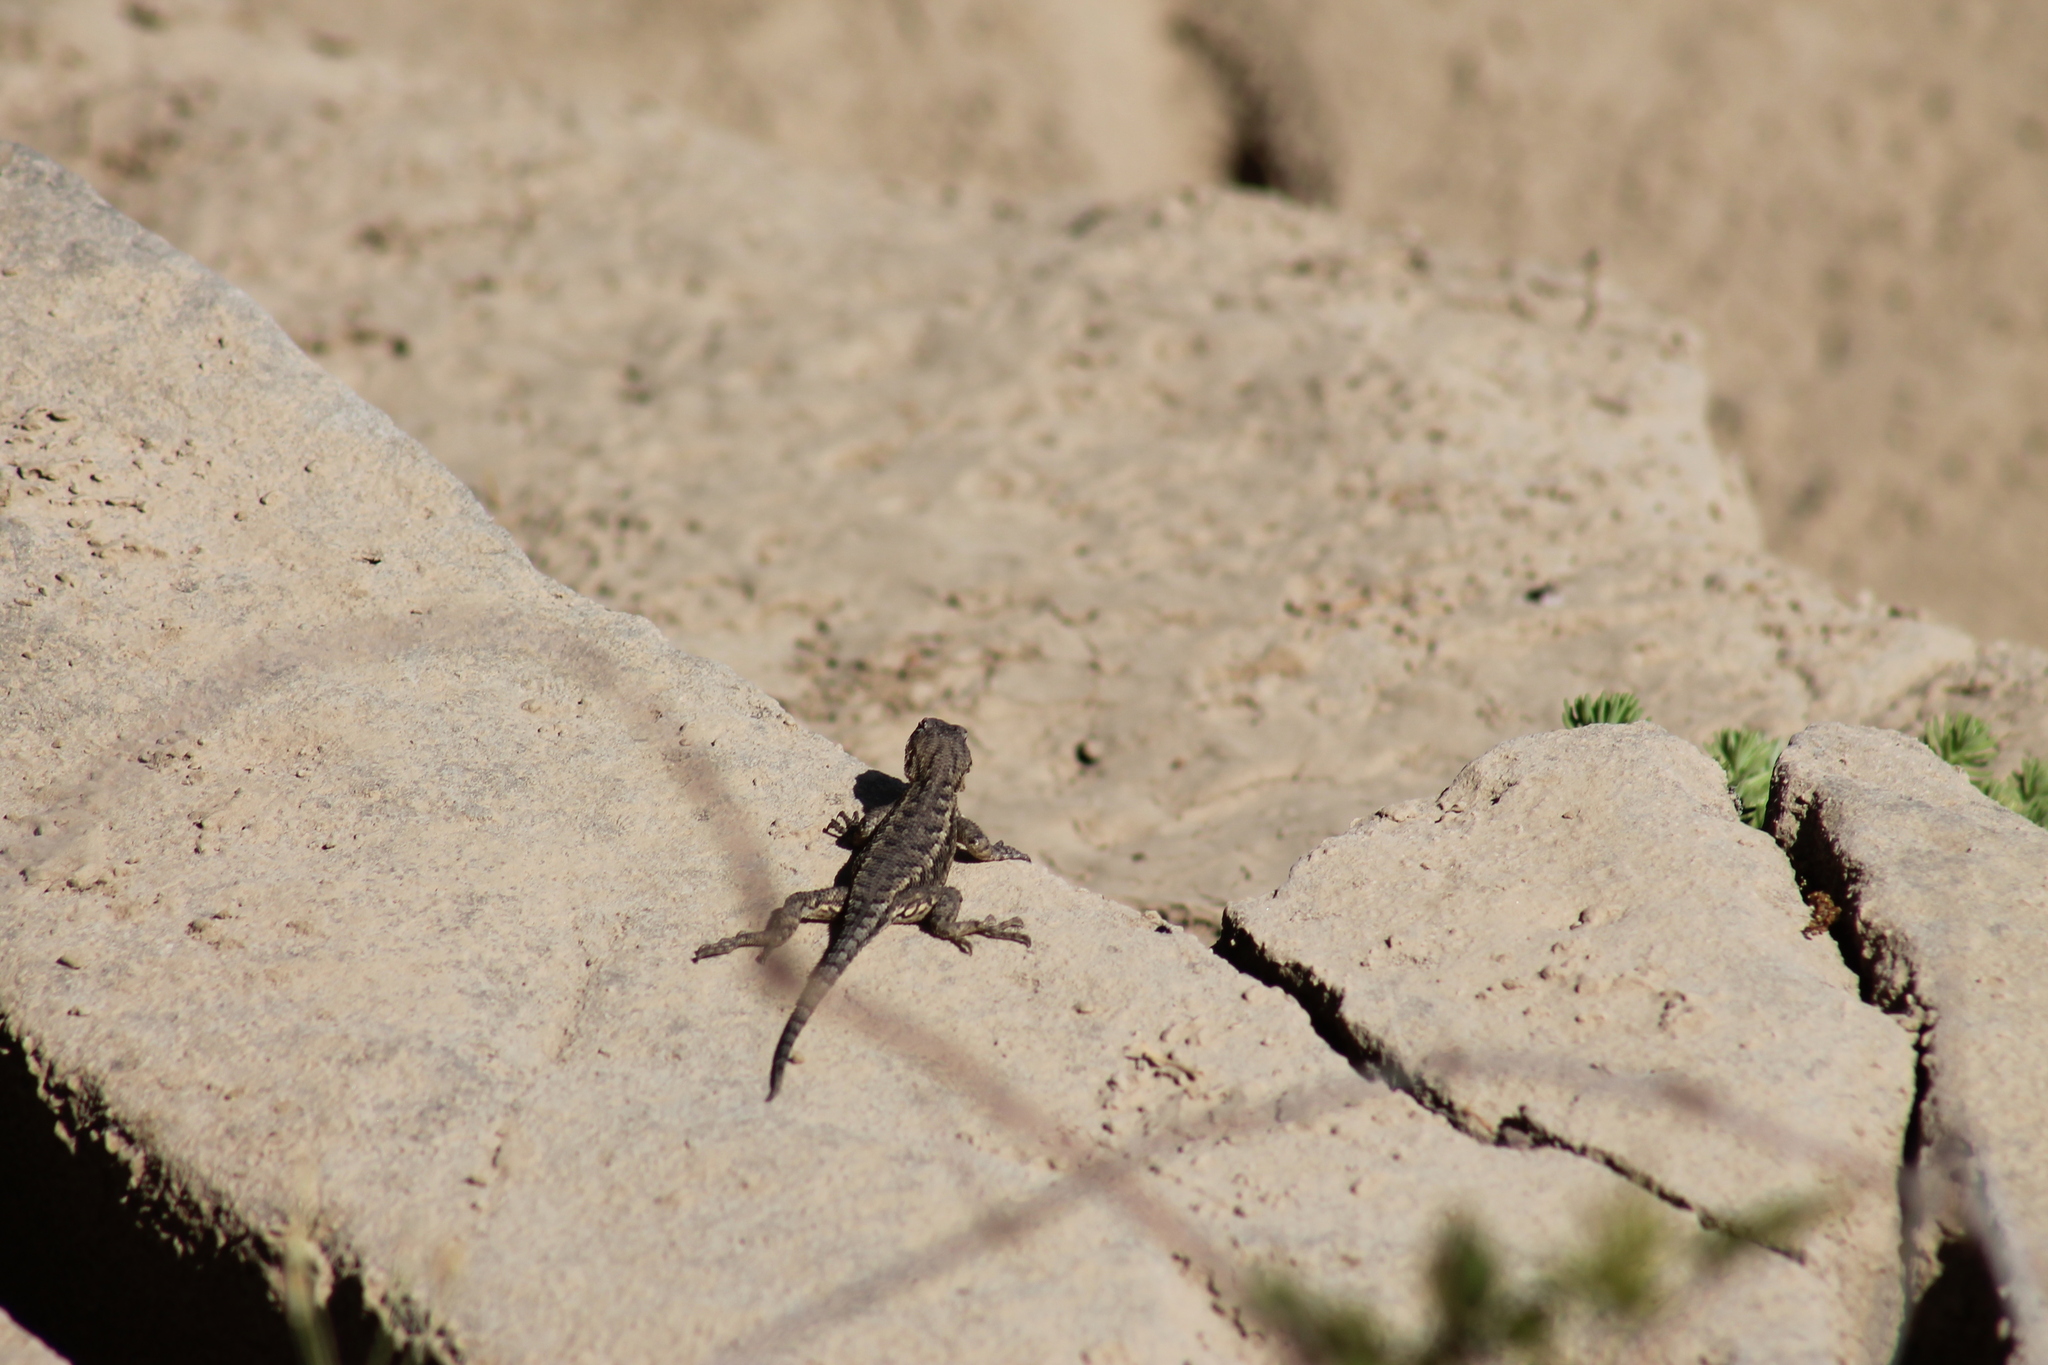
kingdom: Animalia
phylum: Chordata
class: Squamata
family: Phrynosomatidae
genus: Sceloporus
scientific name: Sceloporus undulatus
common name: Eastern fence lizard
